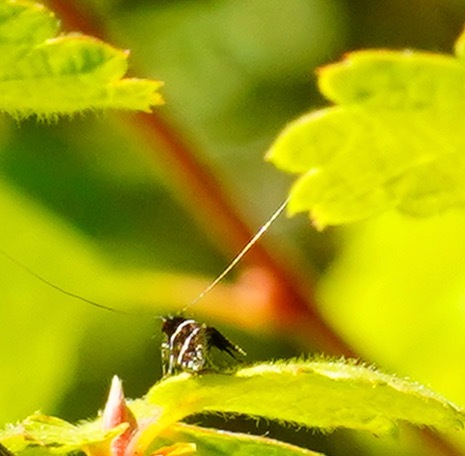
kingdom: Animalia
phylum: Arthropoda
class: Insecta
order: Lepidoptera
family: Adelidae
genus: Adela
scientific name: Adela septentrionella
